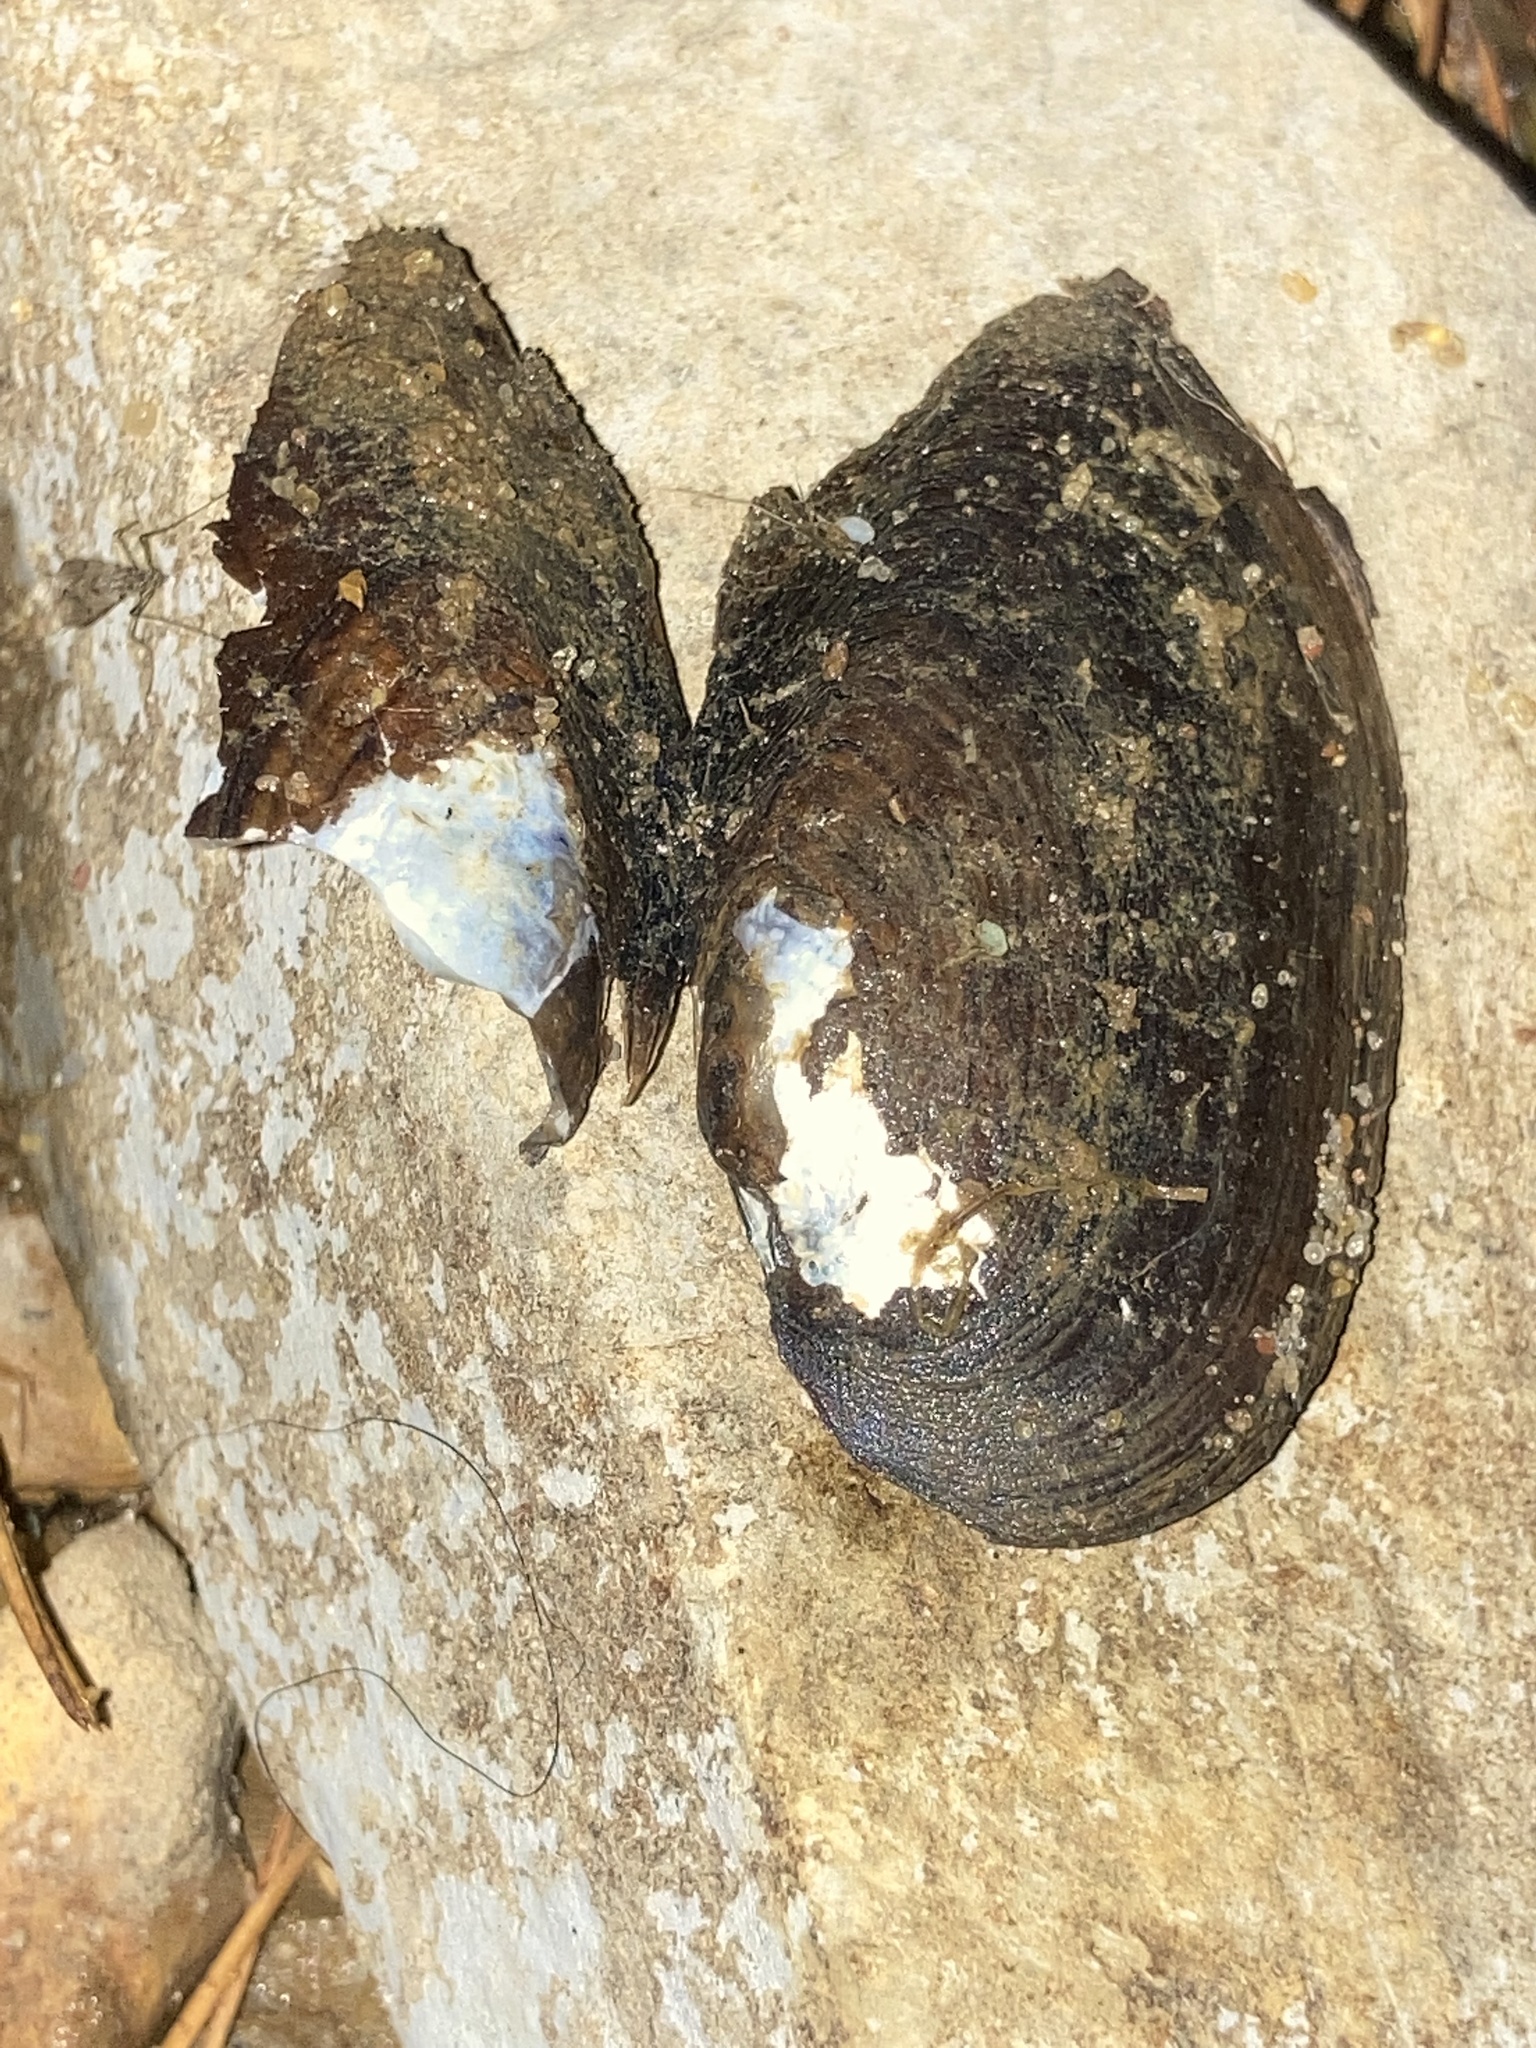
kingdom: Animalia
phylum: Mollusca
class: Bivalvia
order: Unionida
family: Unionidae
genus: Sagittunio
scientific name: Sagittunio subrostratus
